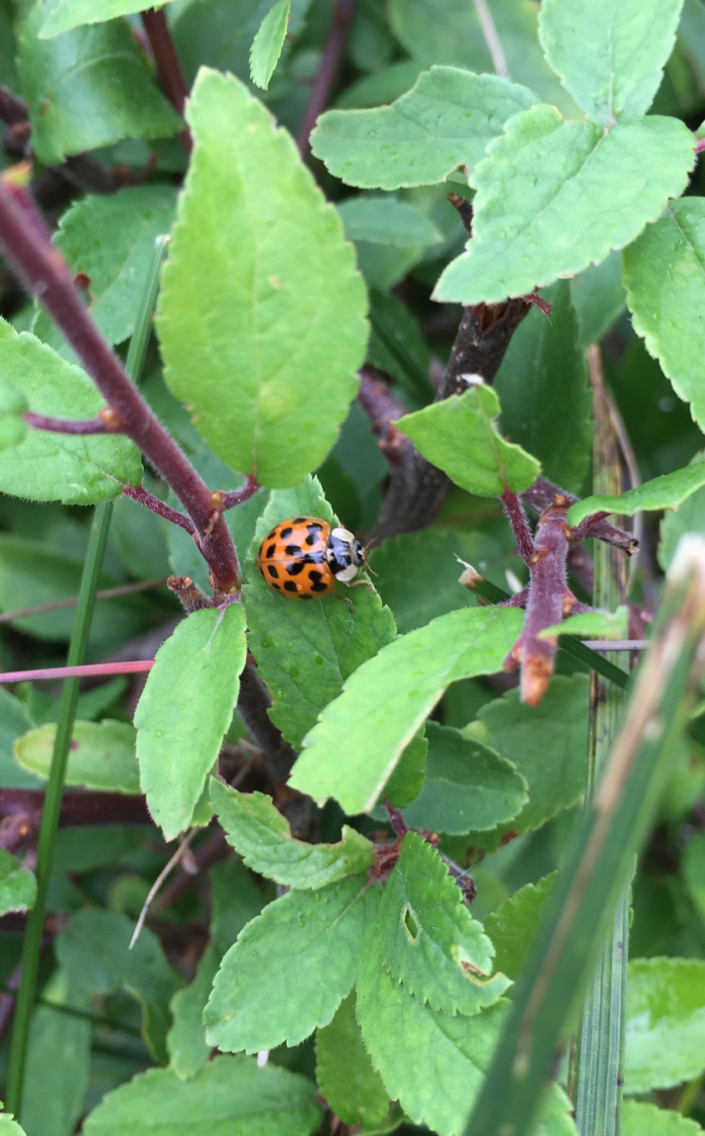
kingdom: Animalia
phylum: Arthropoda
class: Insecta
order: Coleoptera
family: Coccinellidae
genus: Harmonia
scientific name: Harmonia axyridis
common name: Harlequin ladybird
